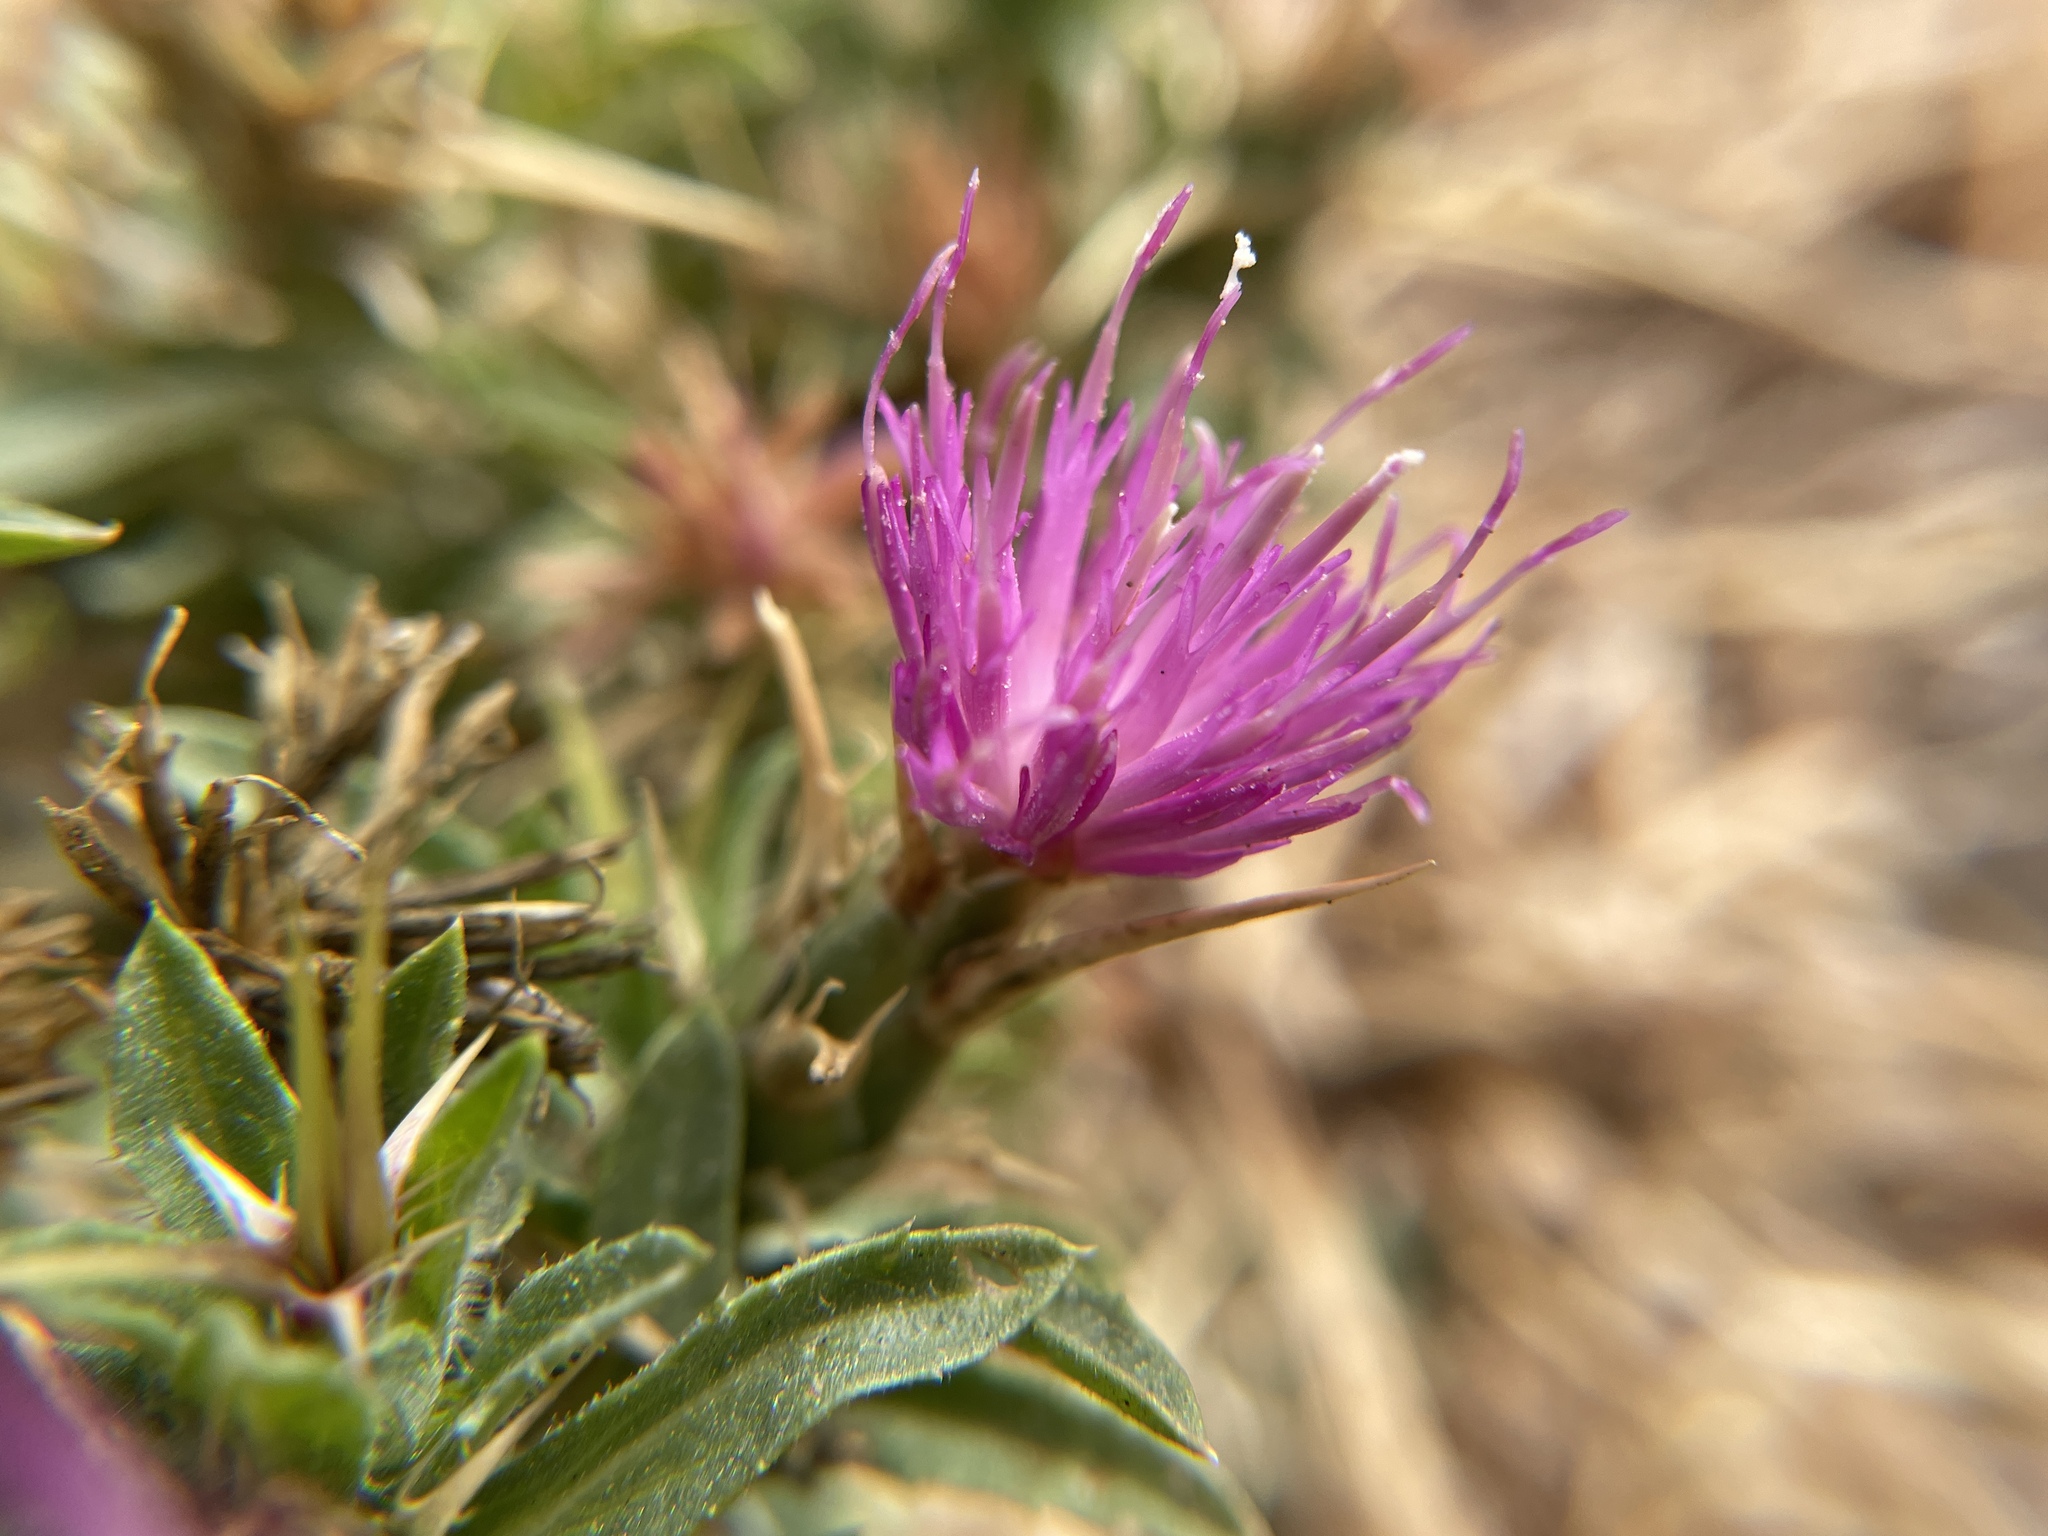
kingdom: Plantae
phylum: Tracheophyta
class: Magnoliopsida
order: Asterales
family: Asteraceae
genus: Centaurea
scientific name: Centaurea calcitrapa
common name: Red star-thistle
